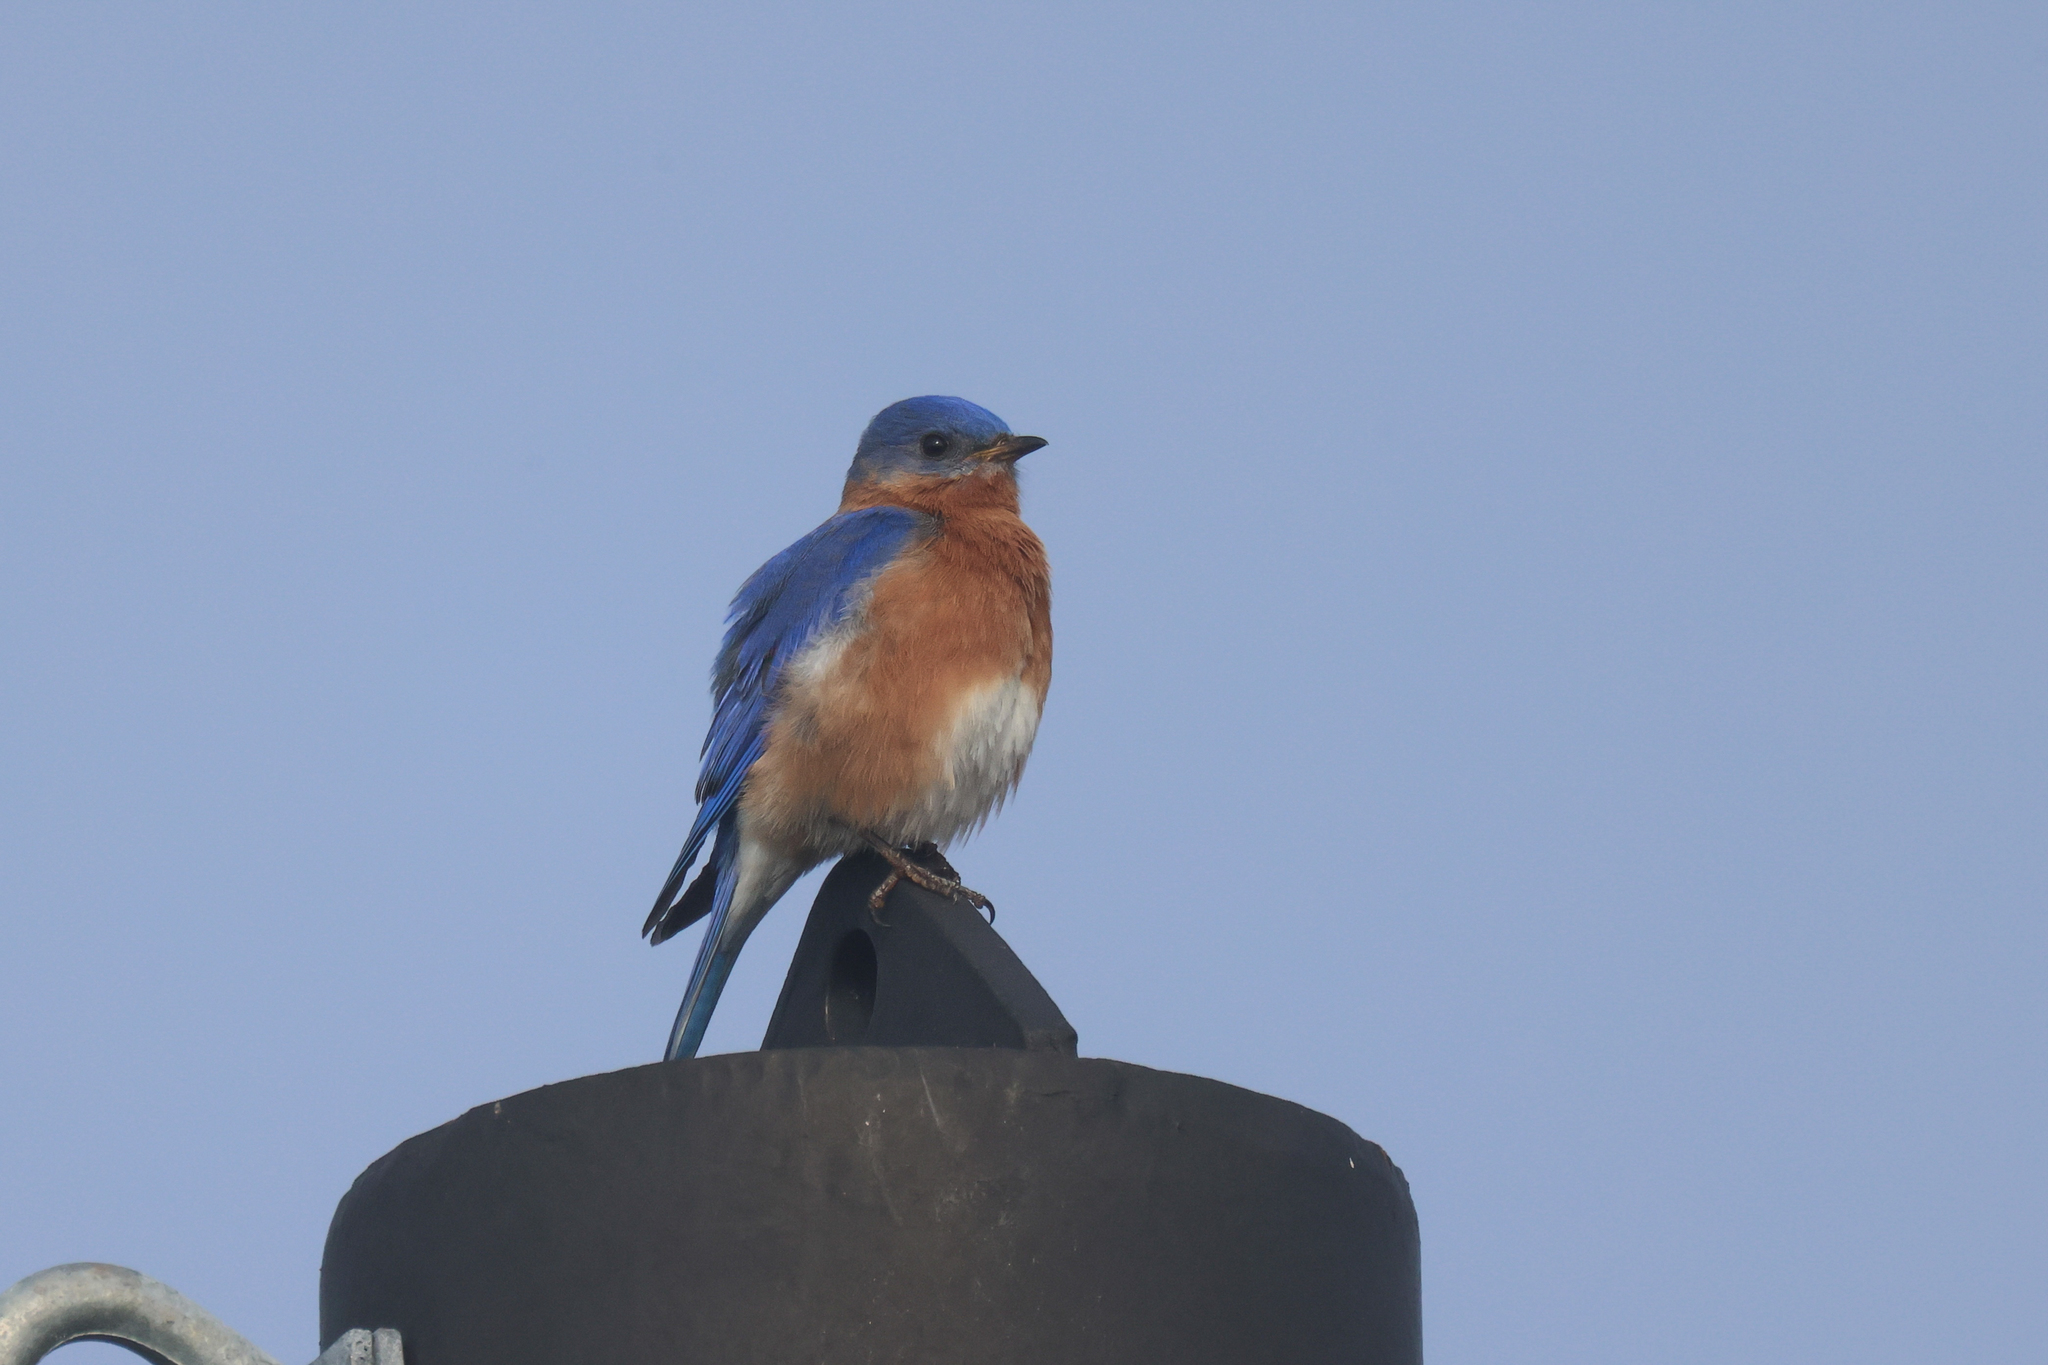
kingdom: Animalia
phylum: Chordata
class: Aves
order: Passeriformes
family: Turdidae
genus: Sialia
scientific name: Sialia sialis
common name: Eastern bluebird
